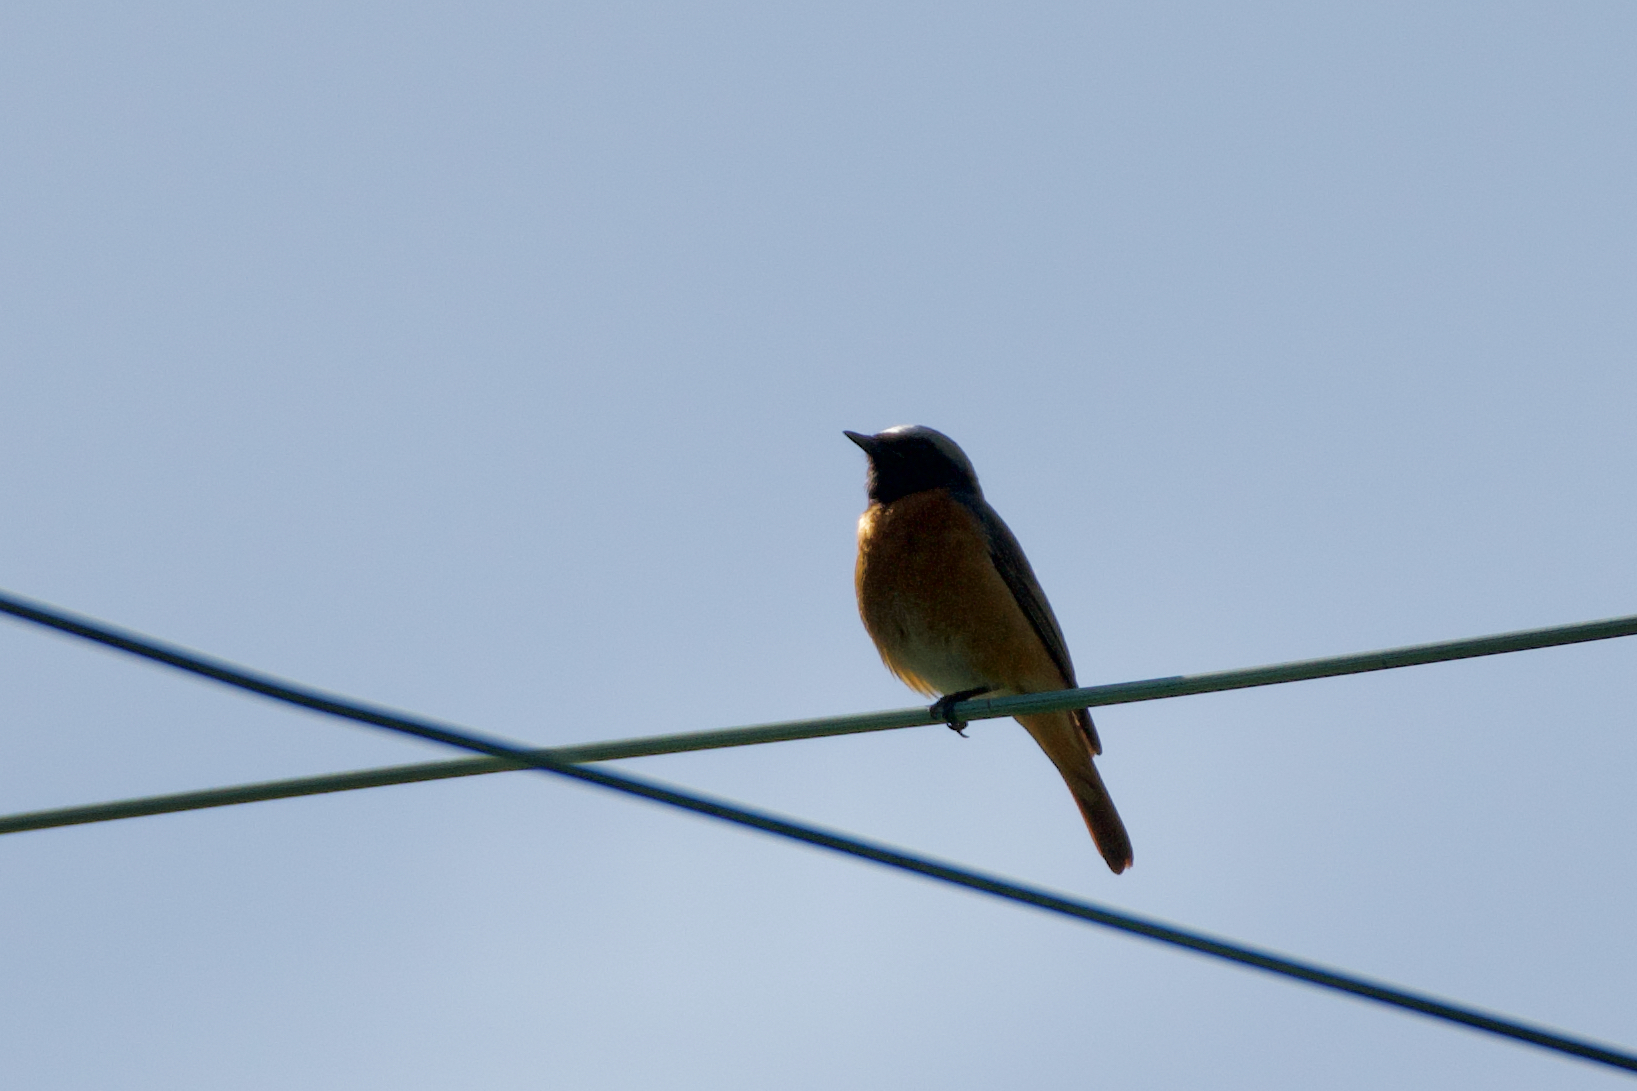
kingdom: Animalia
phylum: Chordata
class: Aves
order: Passeriformes
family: Muscicapidae
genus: Phoenicurus
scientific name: Phoenicurus phoenicurus
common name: Common redstart
